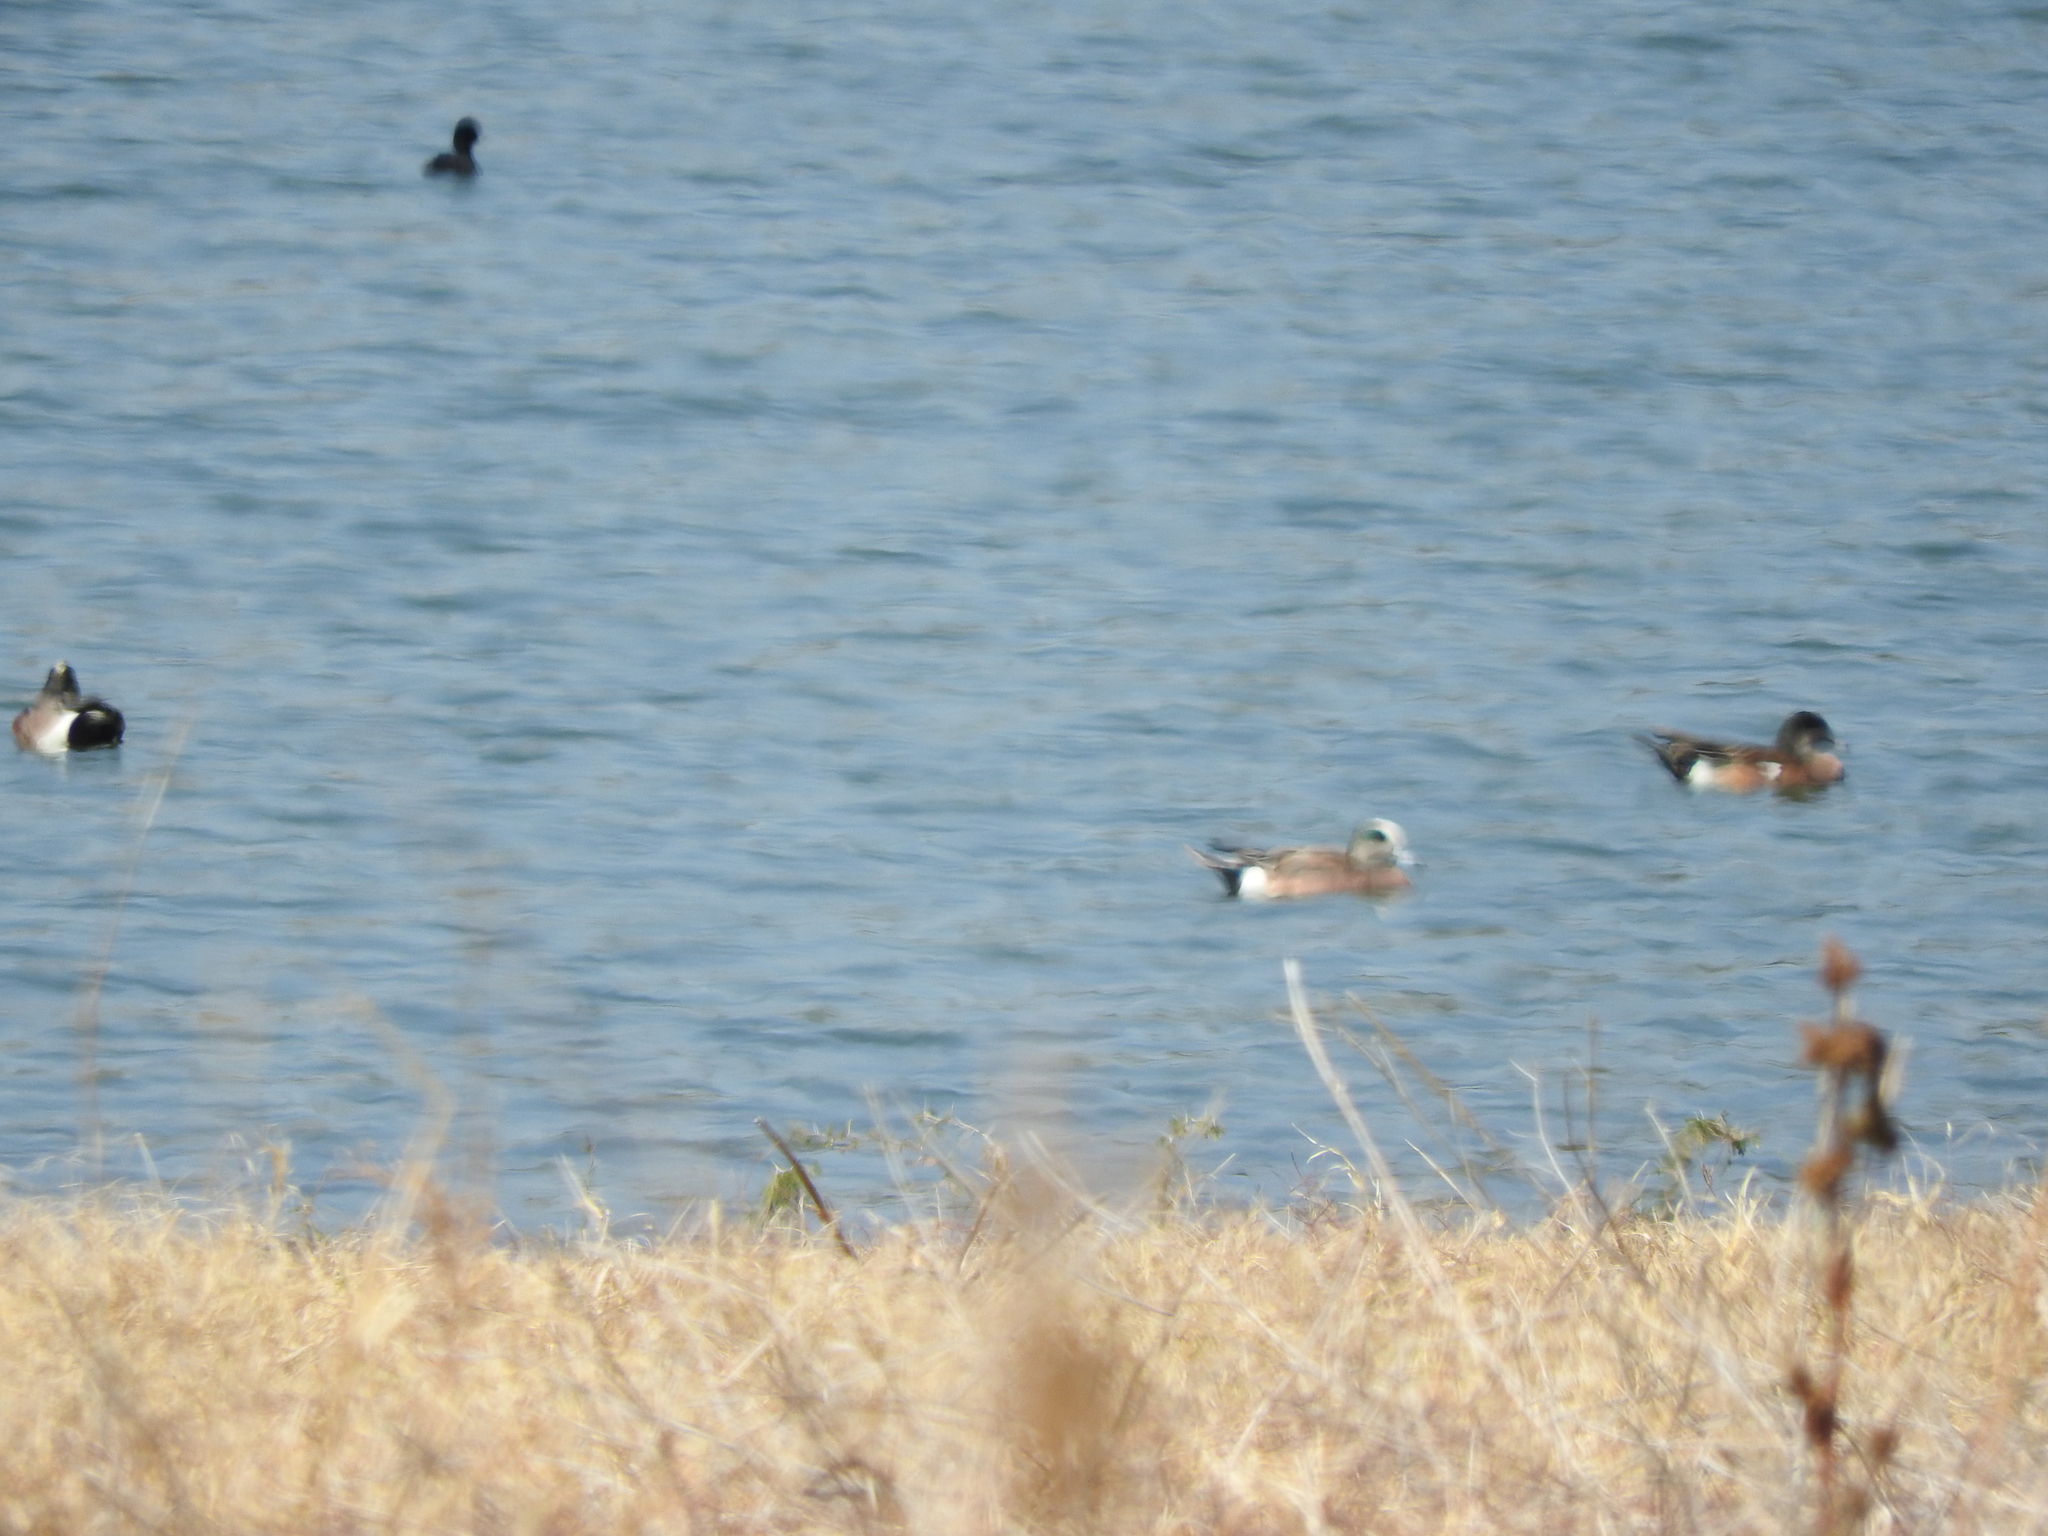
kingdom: Animalia
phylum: Chordata
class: Aves
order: Anseriformes
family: Anatidae
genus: Mareca
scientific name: Mareca americana
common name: American wigeon
